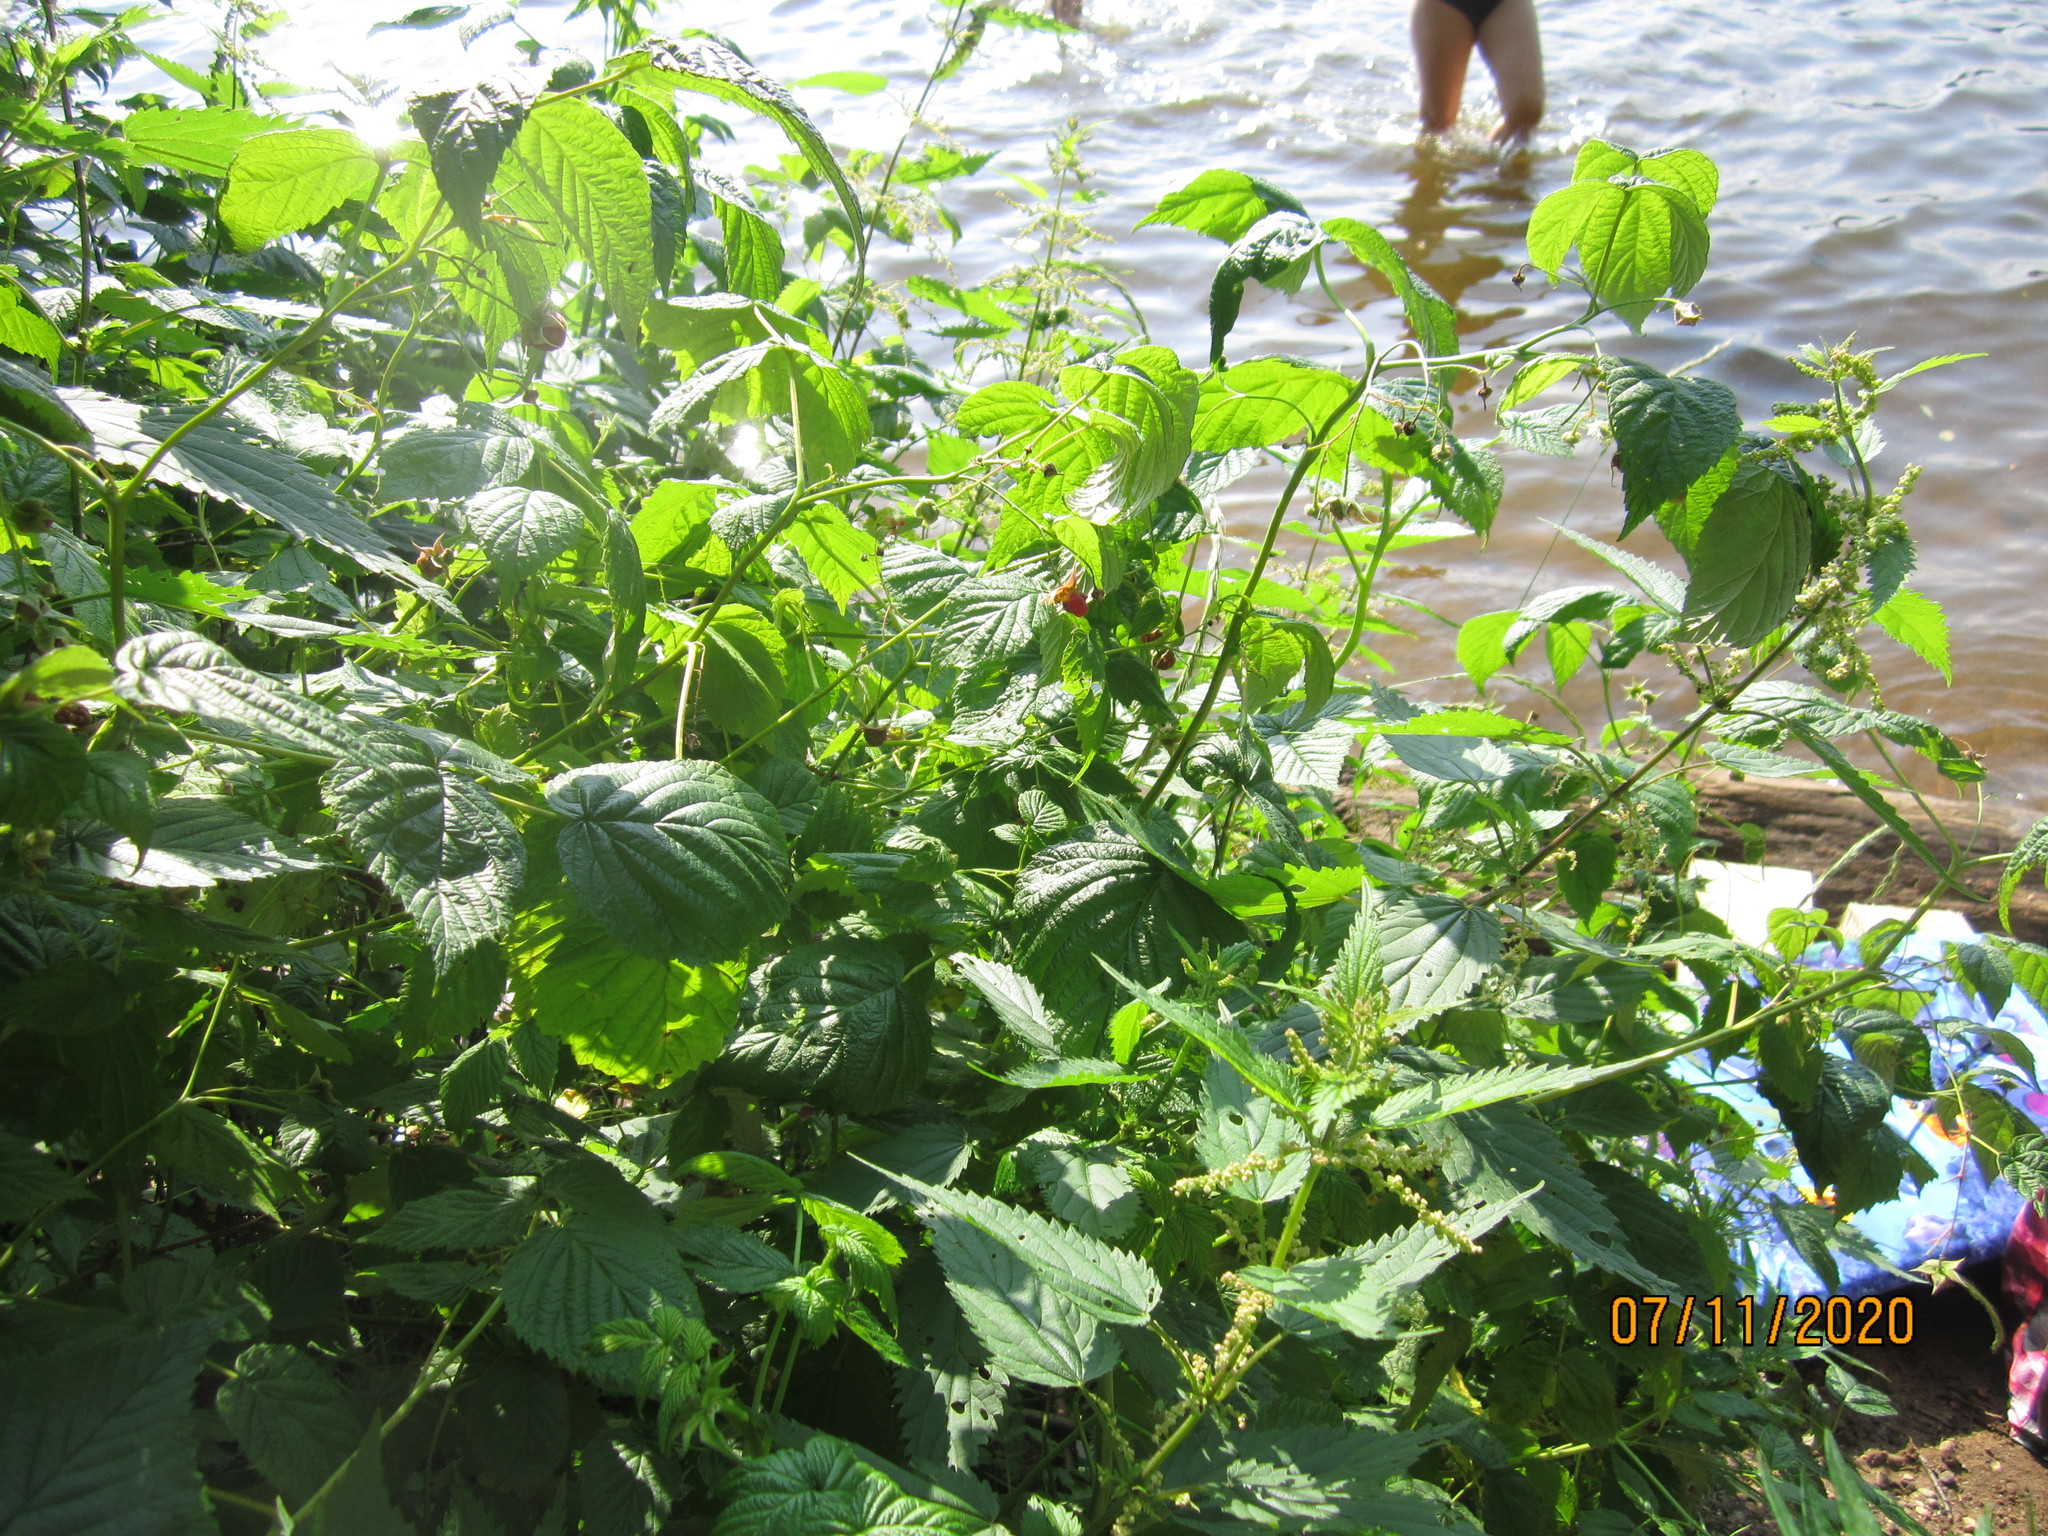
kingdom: Plantae
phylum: Tracheophyta
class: Magnoliopsida
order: Rosales
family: Rosaceae
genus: Rubus
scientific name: Rubus idaeus
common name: Raspberry
